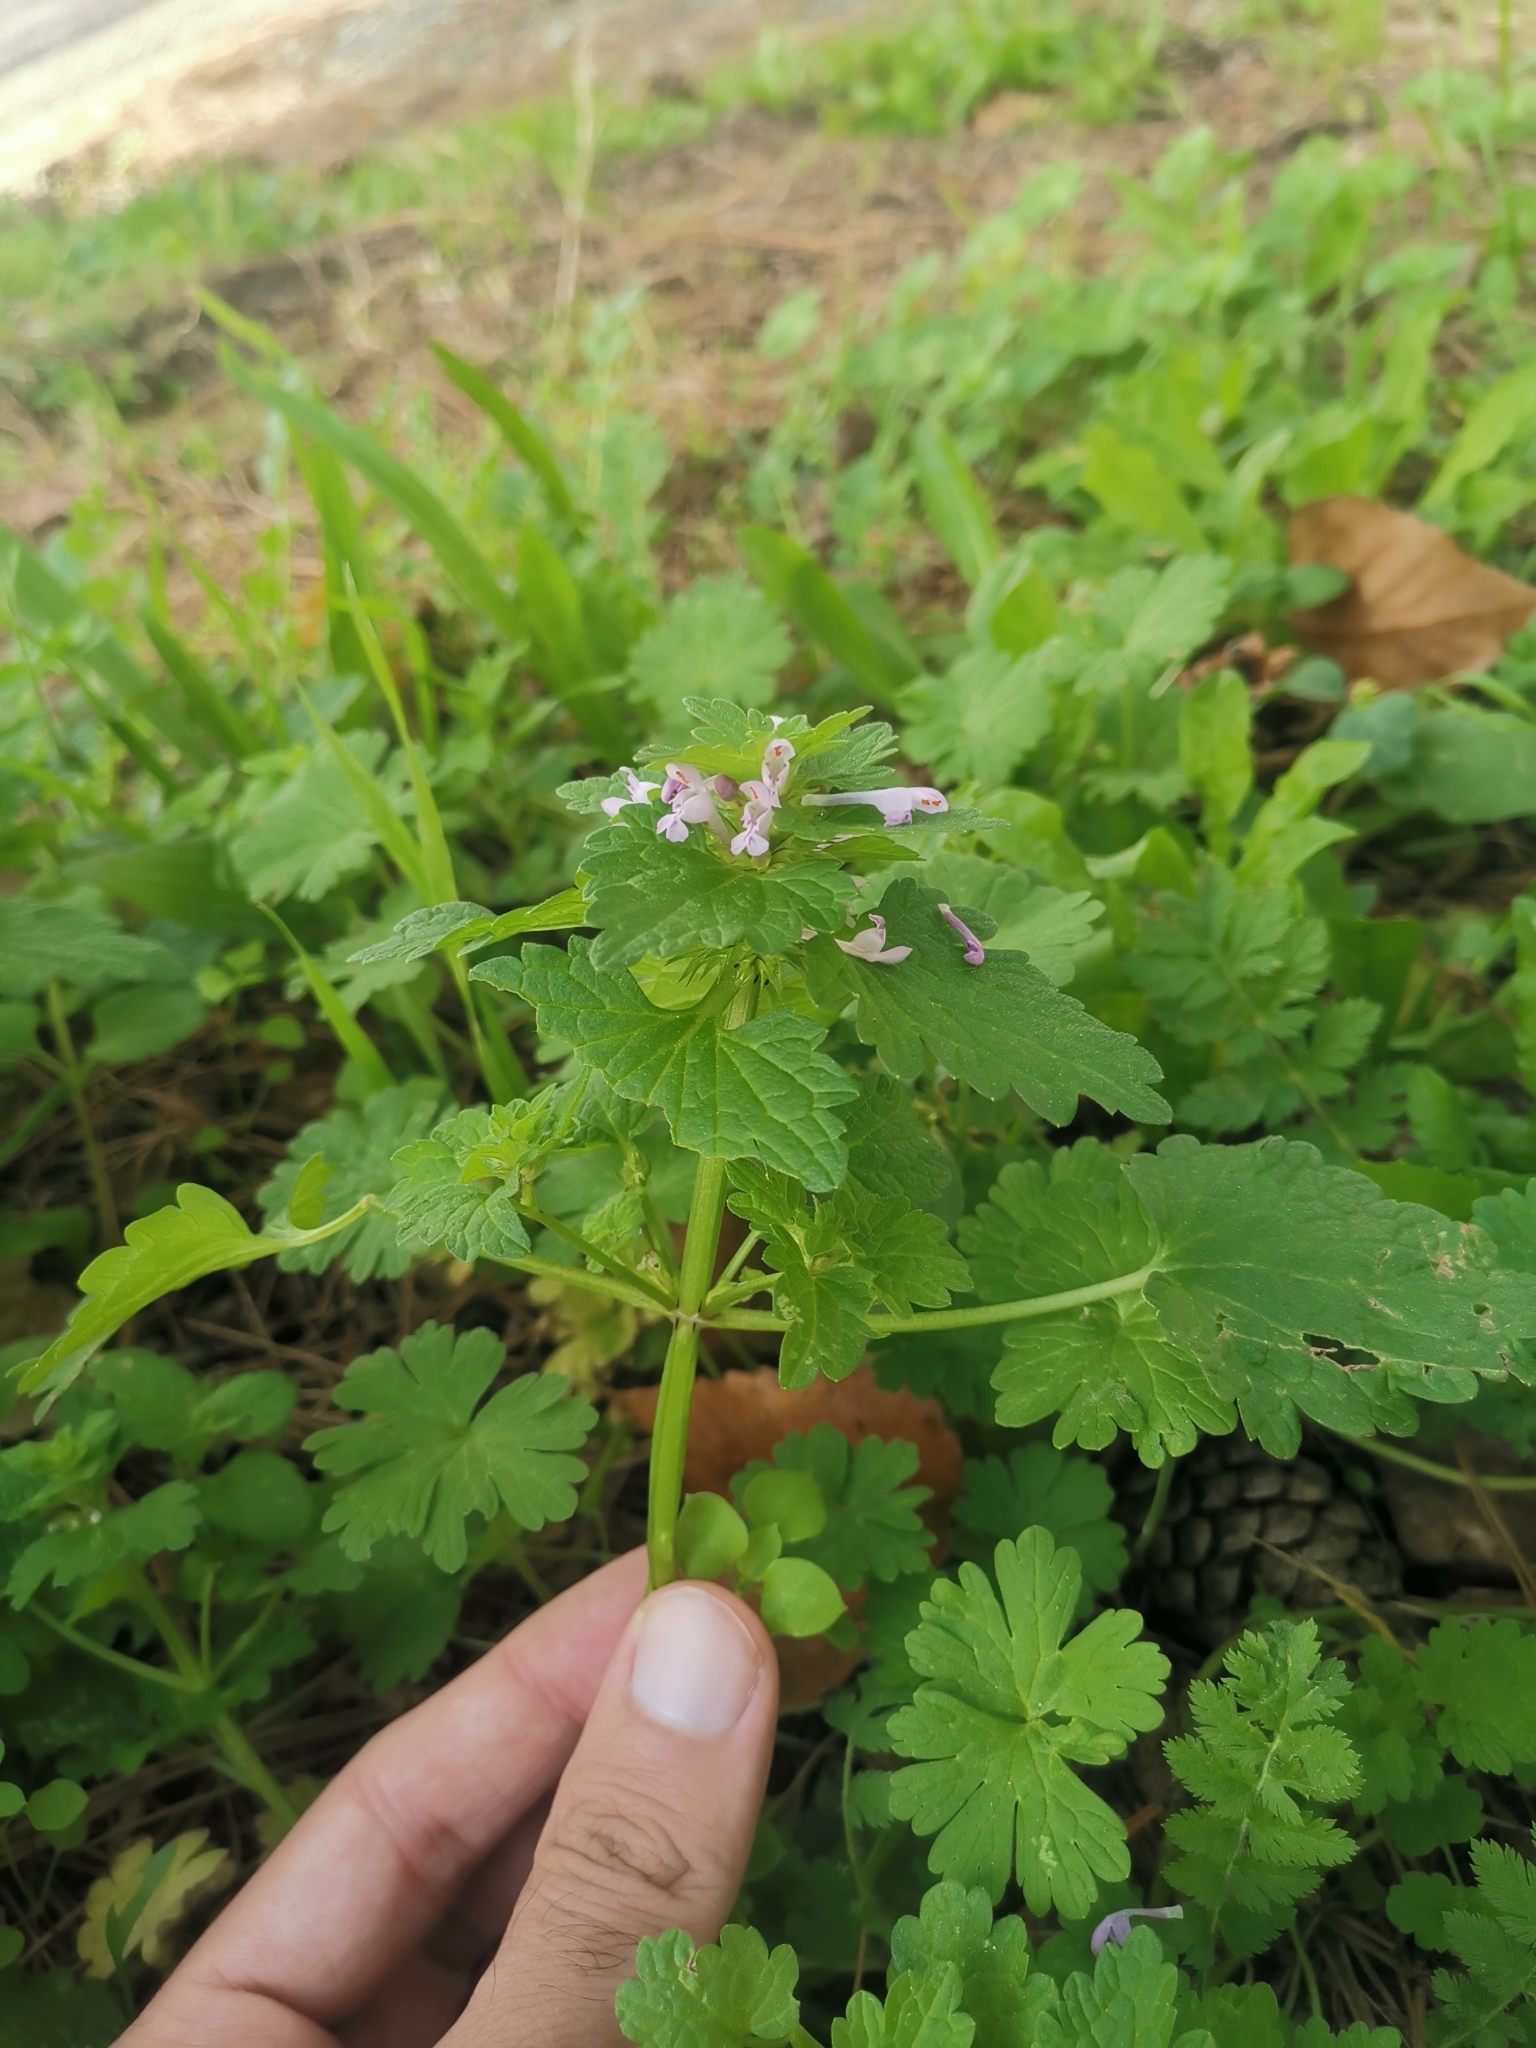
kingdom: Plantae
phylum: Tracheophyta
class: Magnoliopsida
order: Lamiales
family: Lamiaceae
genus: Lamium
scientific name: Lamium hybridum
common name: Cut-leaved dead-nettle
